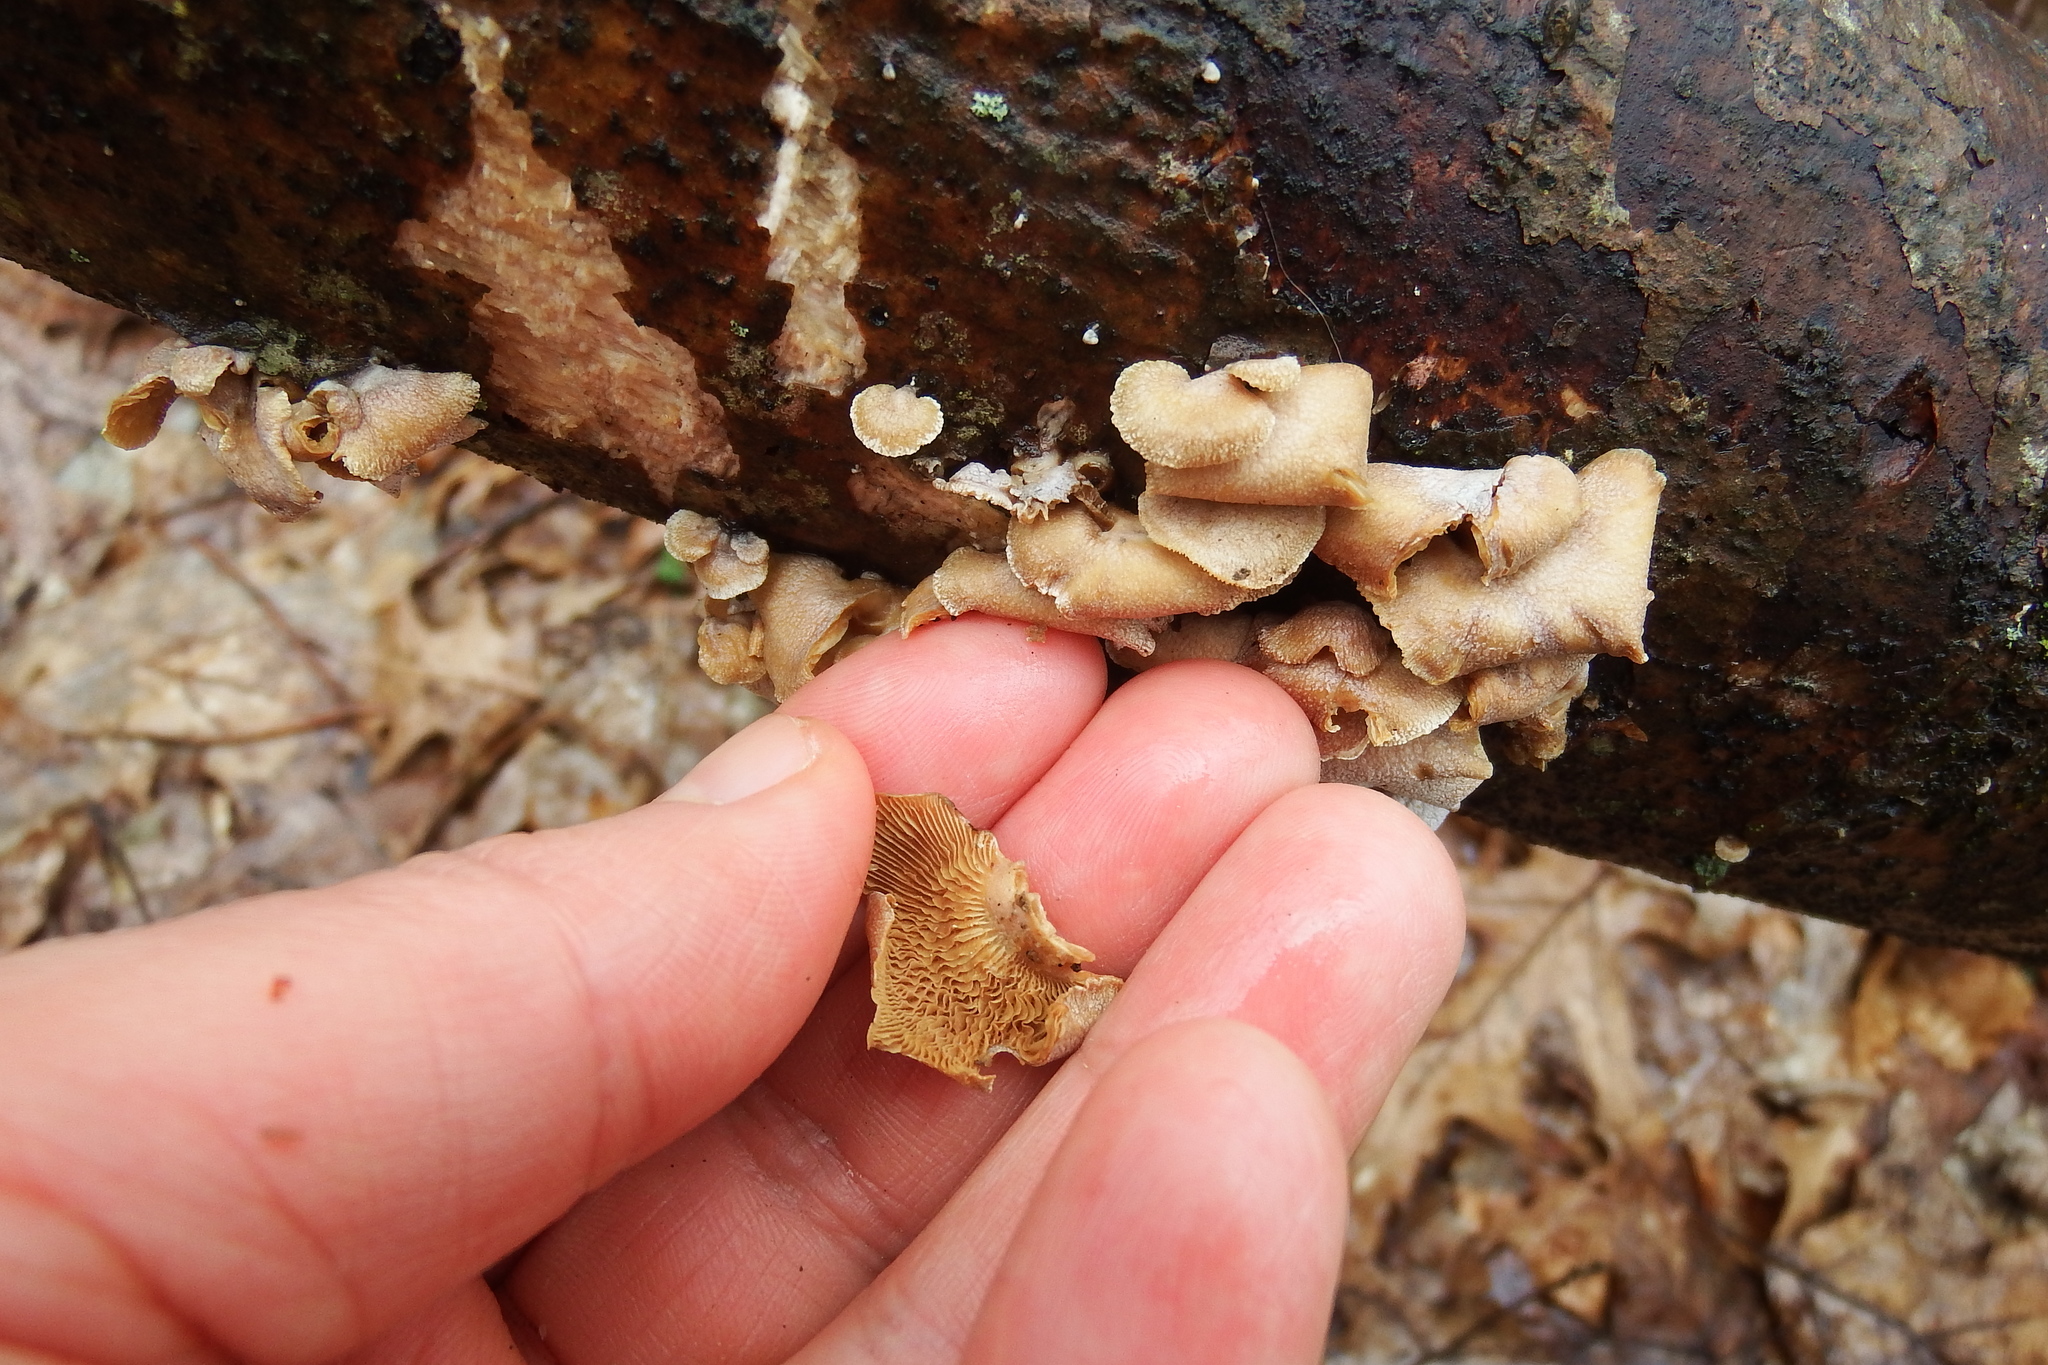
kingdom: Fungi
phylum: Basidiomycota
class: Agaricomycetes
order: Agaricales
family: Mycenaceae
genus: Panellus
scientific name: Panellus stipticus
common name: Bitter oysterling
